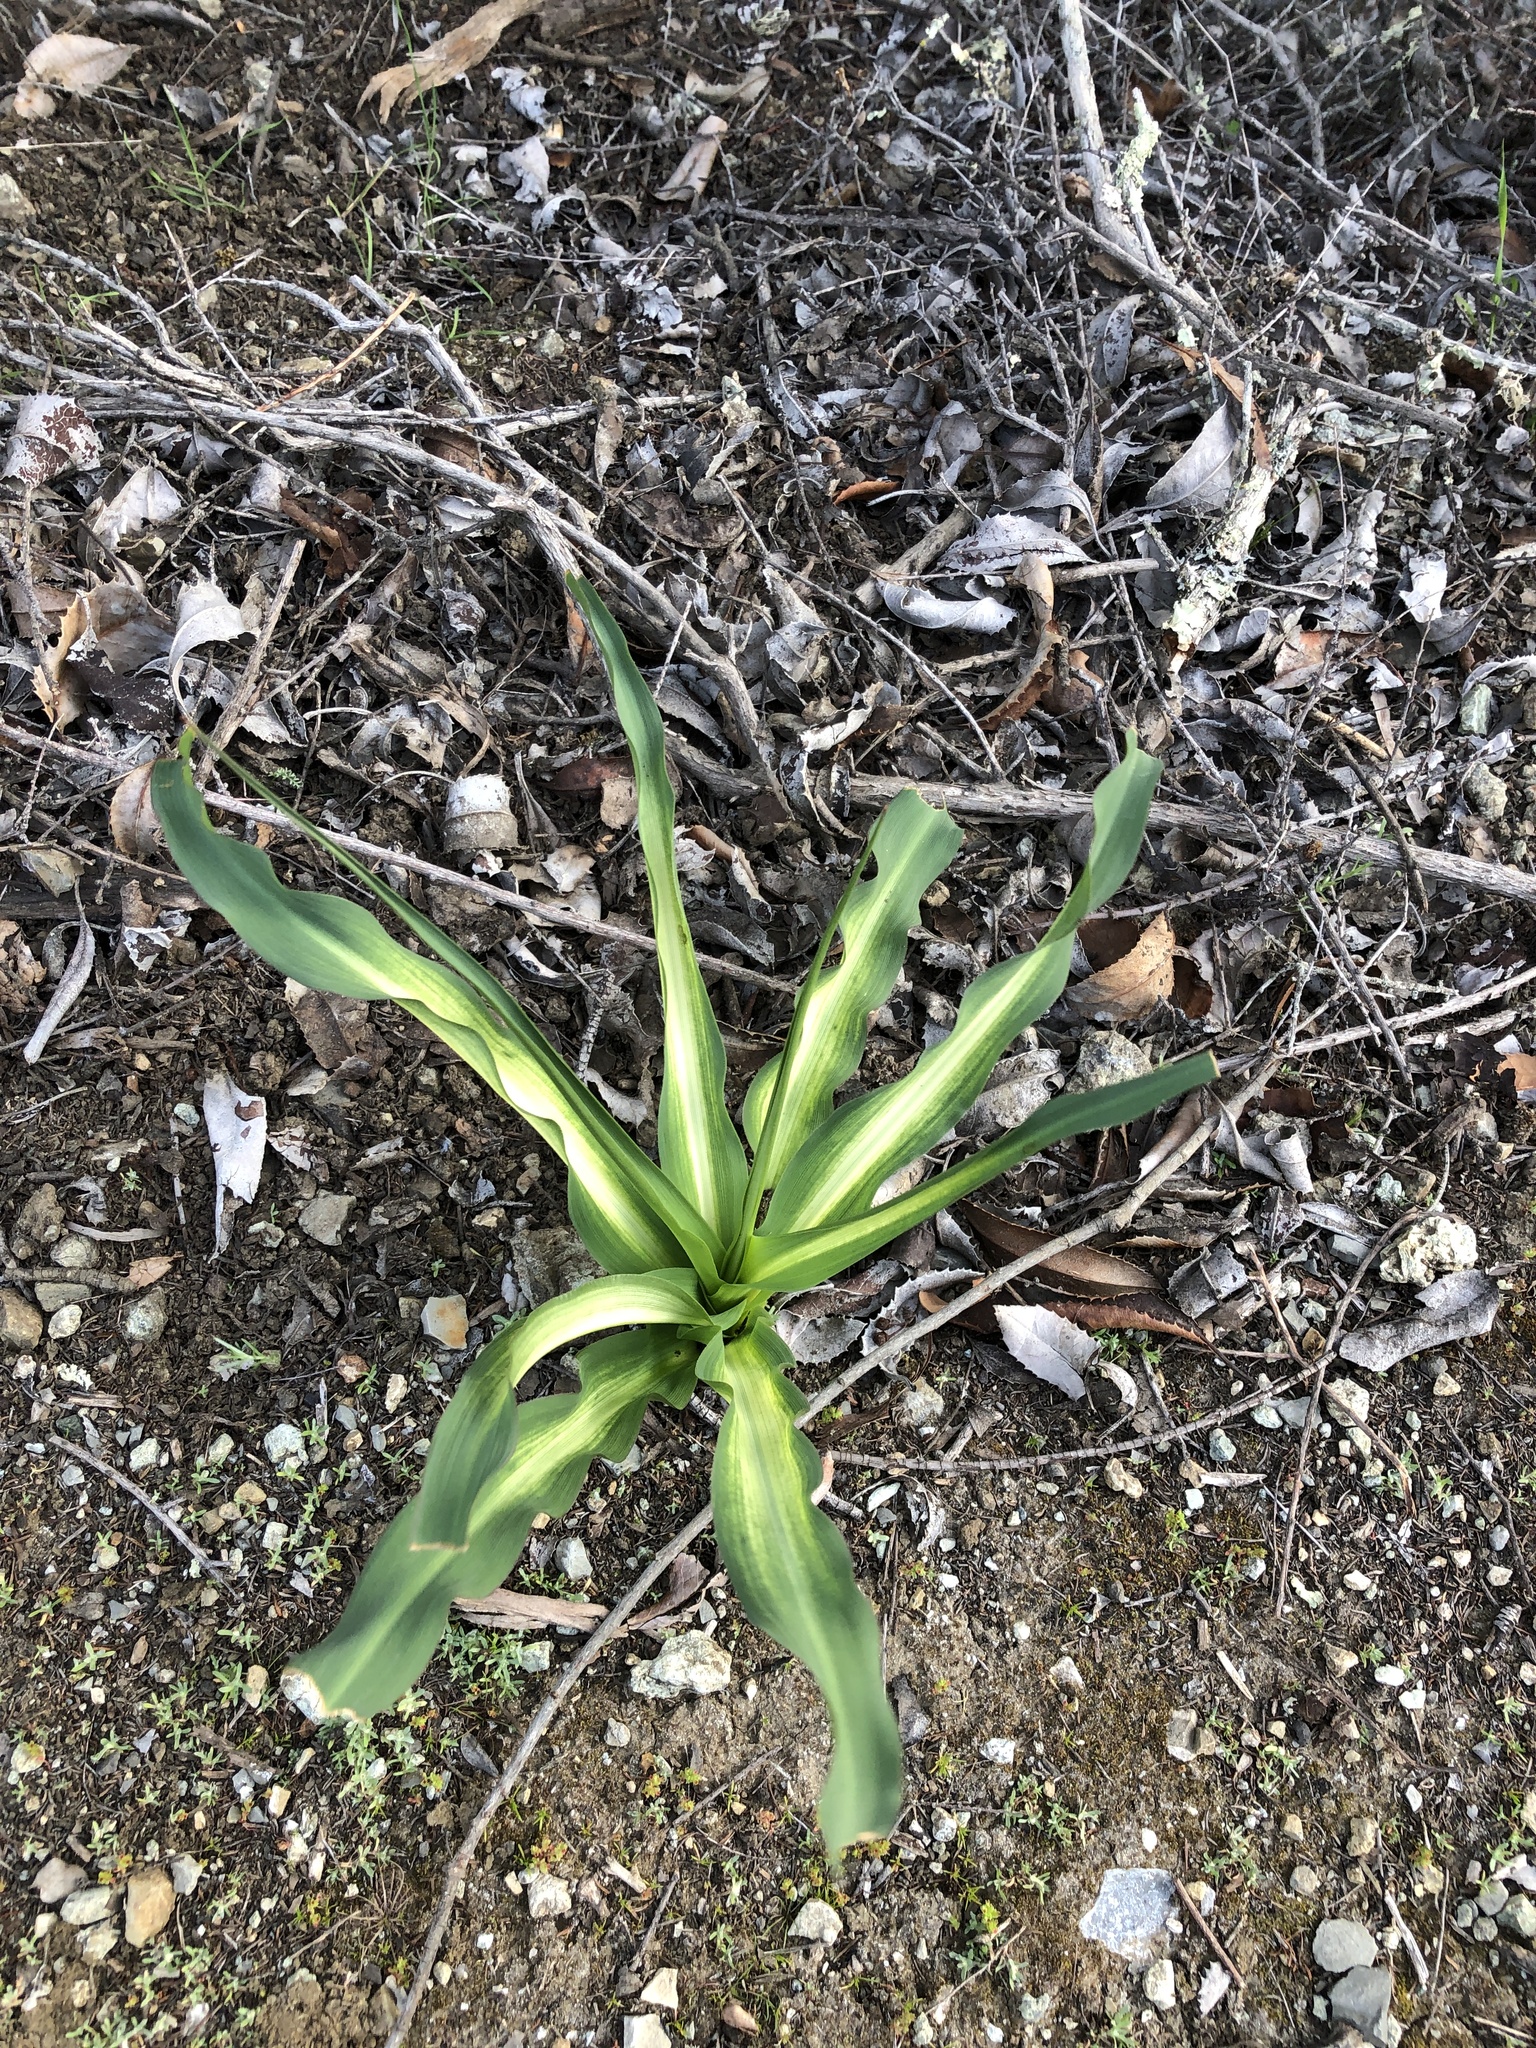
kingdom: Plantae
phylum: Tracheophyta
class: Liliopsida
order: Asparagales
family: Asparagaceae
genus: Chlorogalum
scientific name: Chlorogalum pomeridianum
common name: Amole
